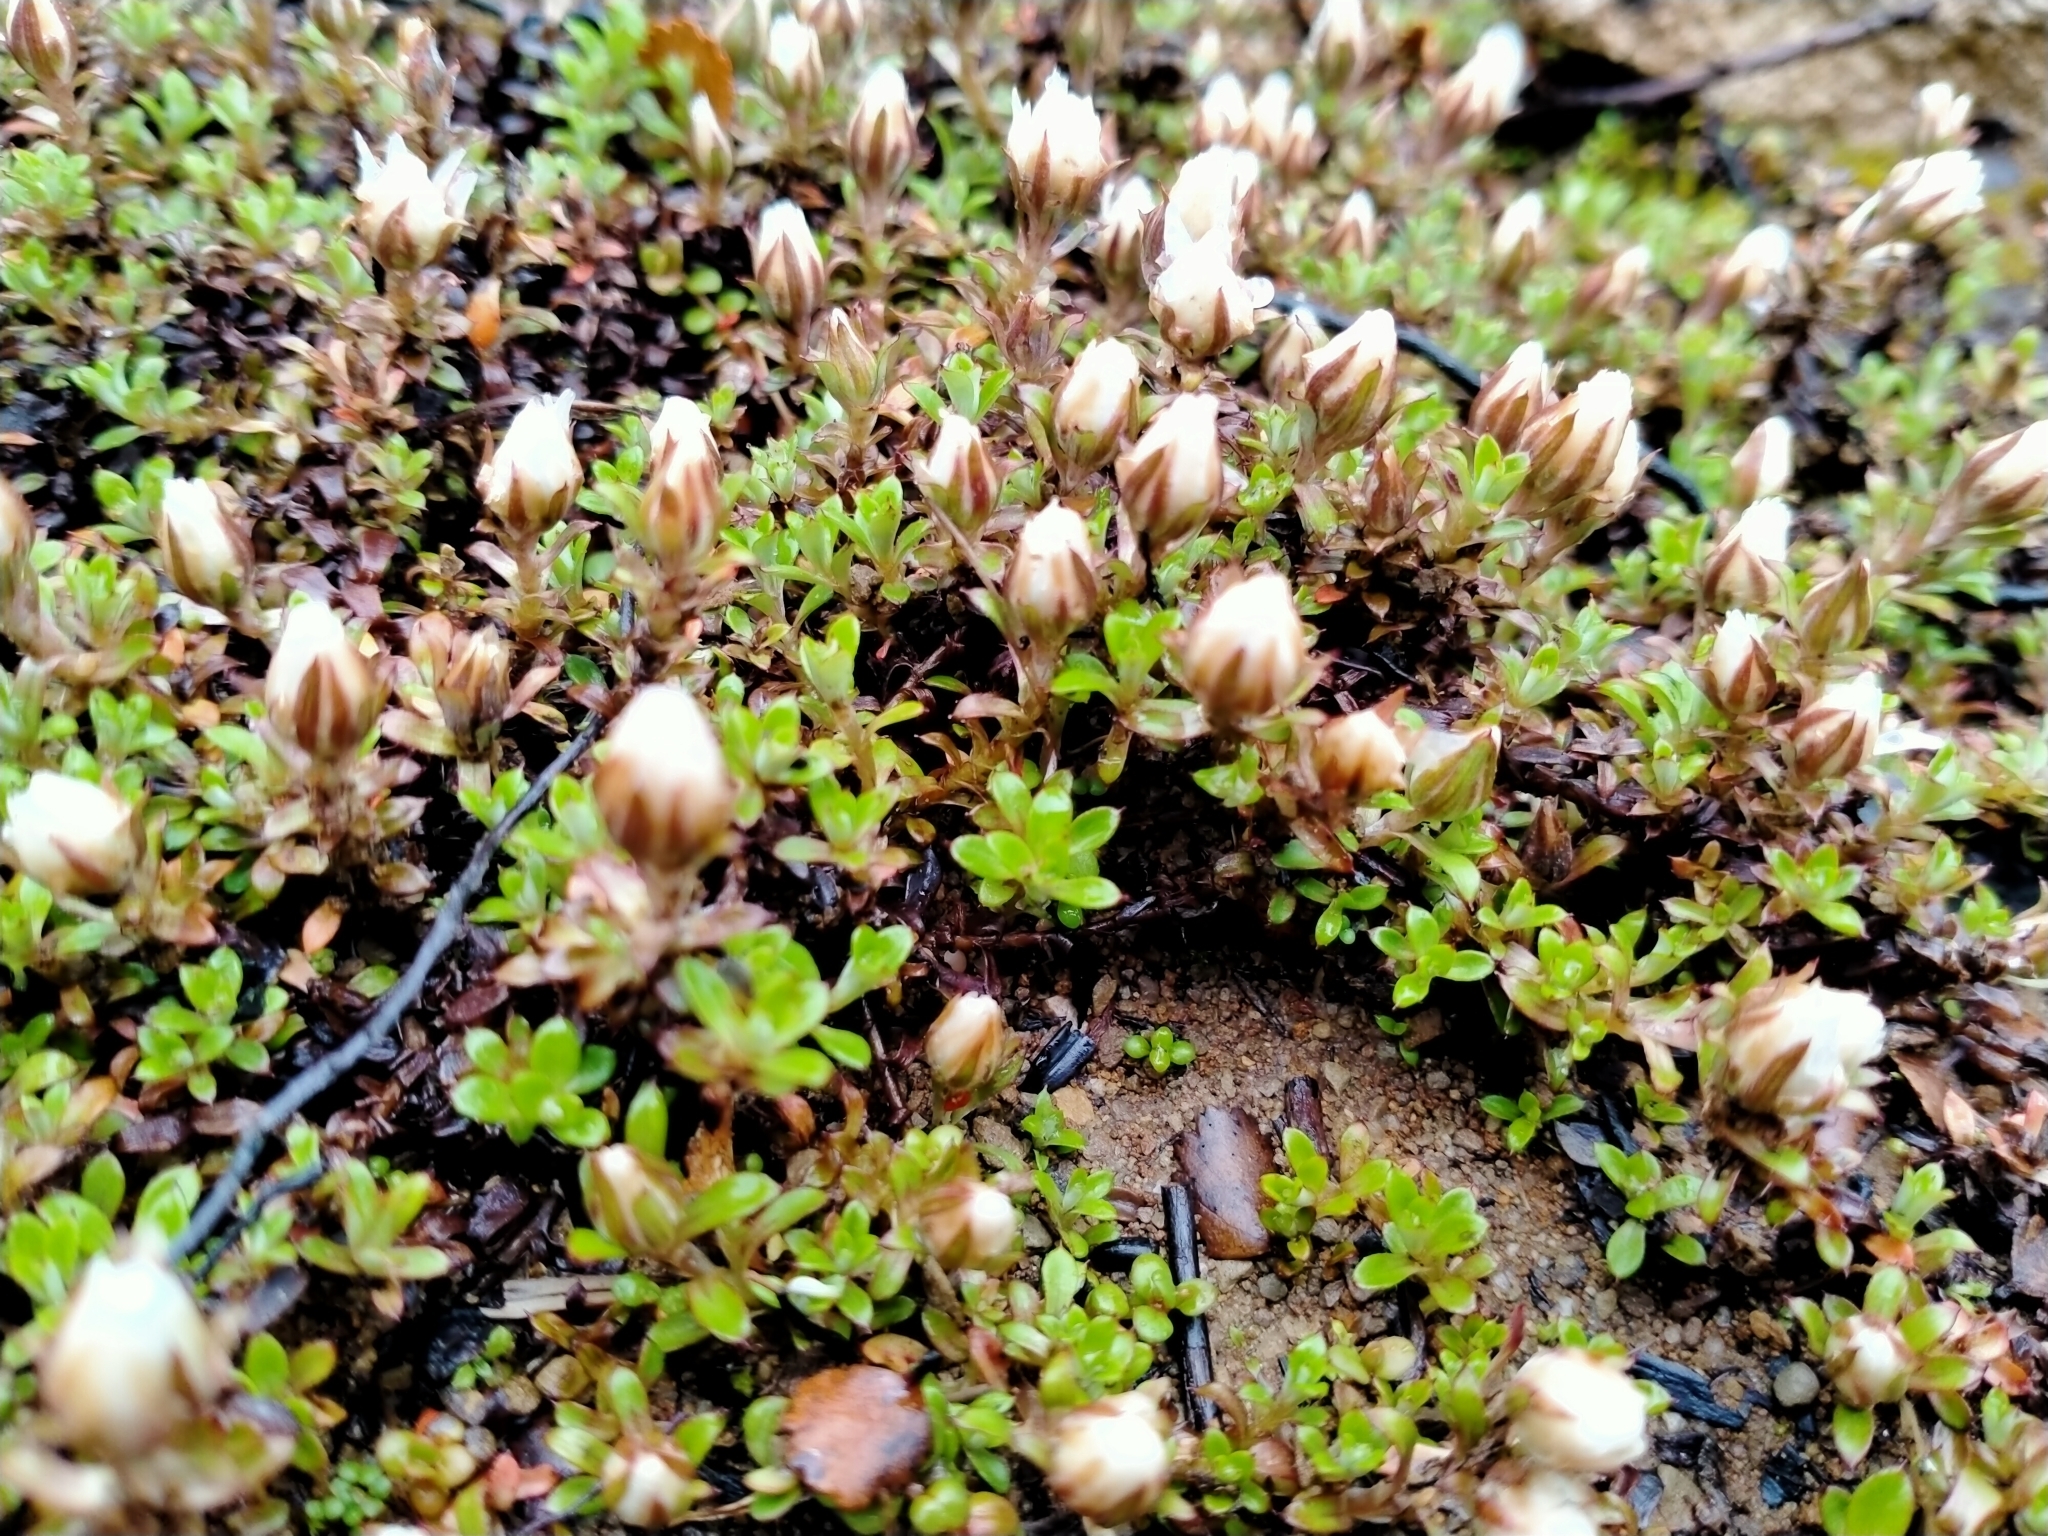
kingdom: Plantae
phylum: Tracheophyta
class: Magnoliopsida
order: Asterales
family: Asteraceae
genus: Anaphalioides
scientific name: Anaphalioides bellidioides
